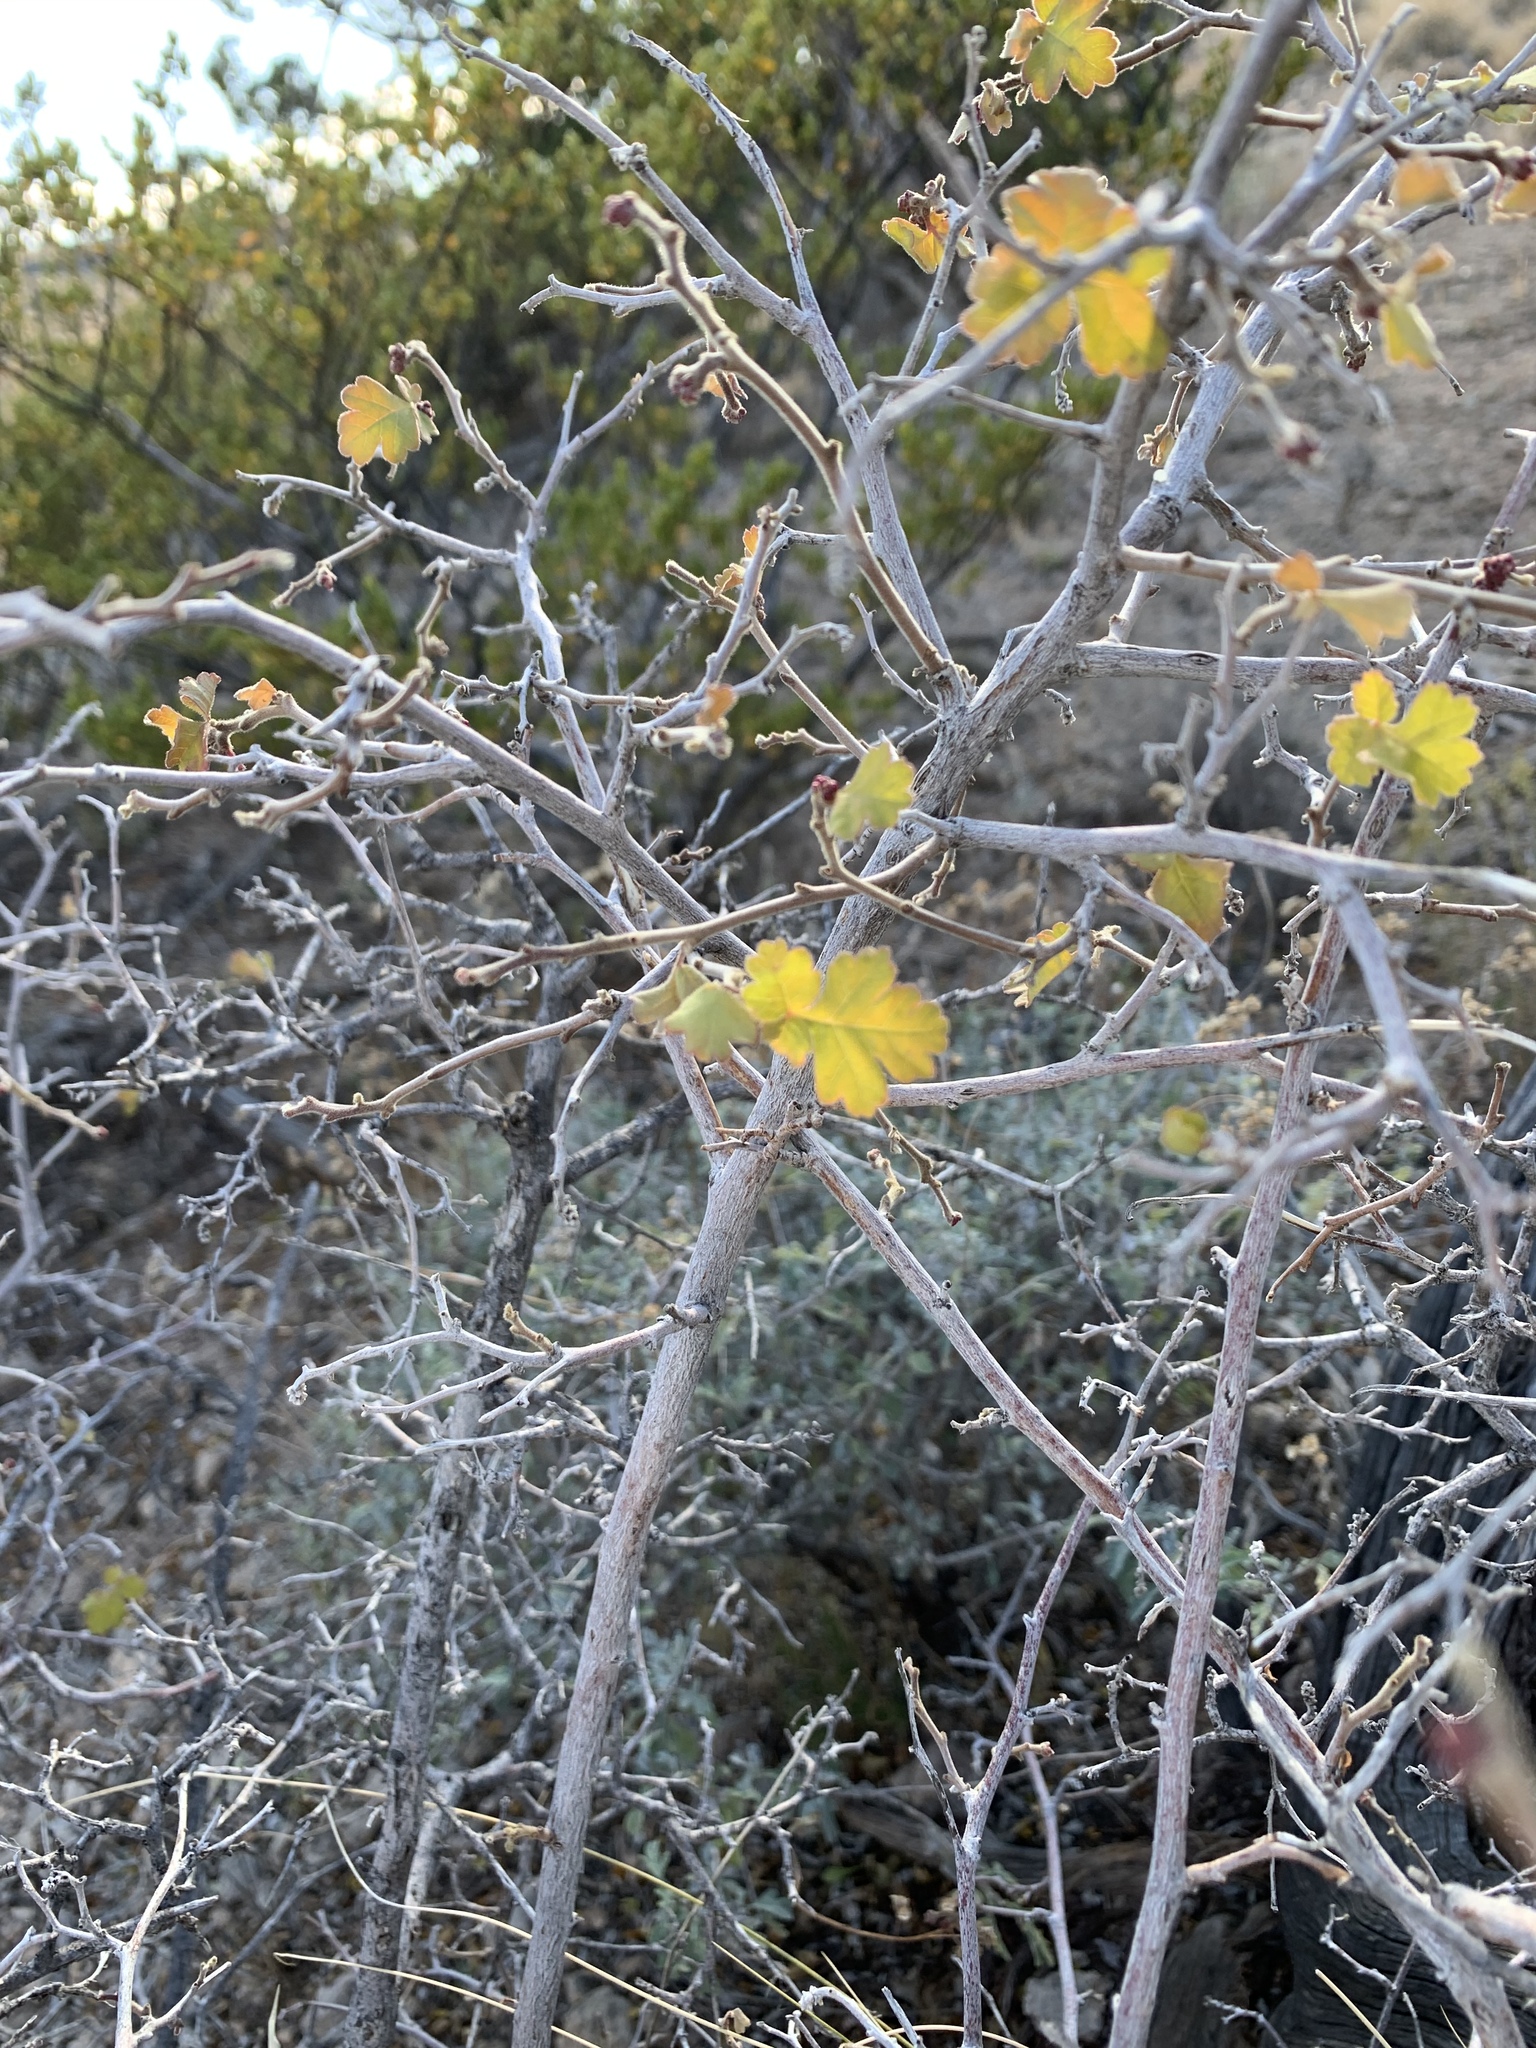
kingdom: Plantae
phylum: Tracheophyta
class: Magnoliopsida
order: Sapindales
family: Anacardiaceae
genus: Rhus
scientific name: Rhus aromatica
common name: Aromatic sumac
